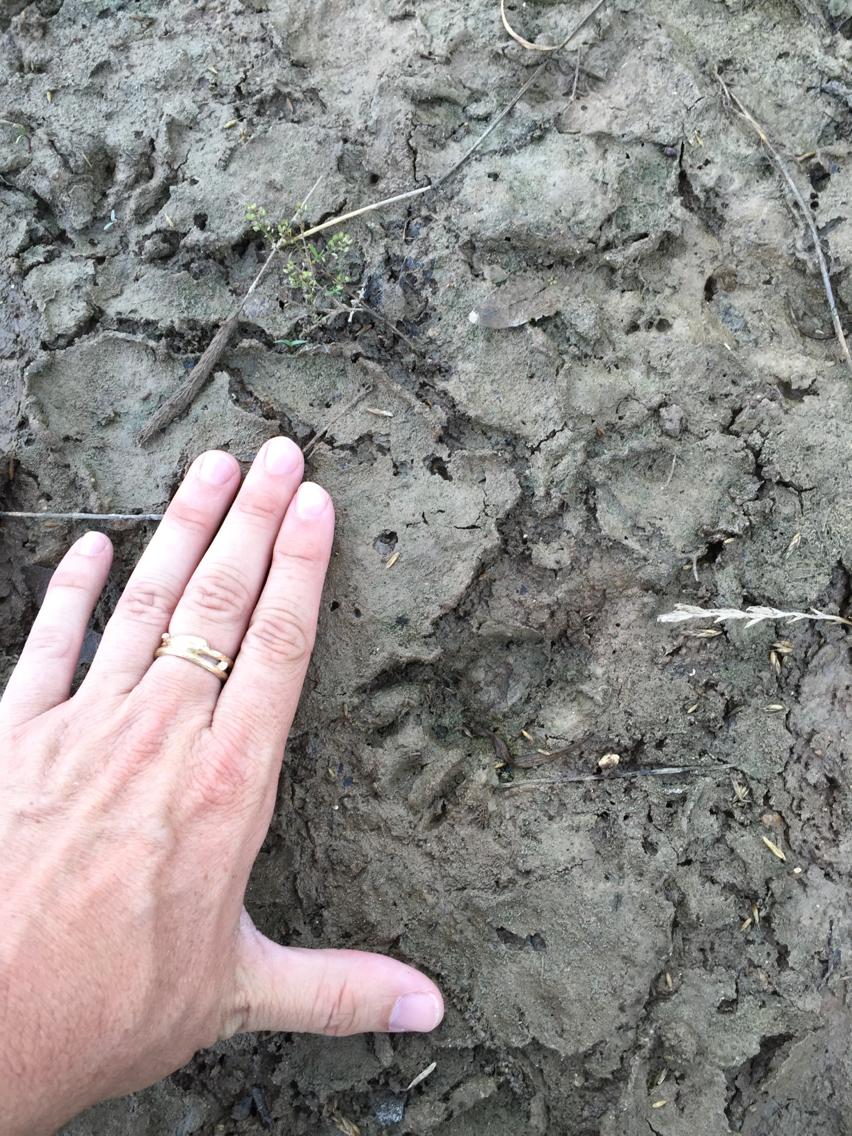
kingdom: Animalia
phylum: Chordata
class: Mammalia
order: Carnivora
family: Procyonidae
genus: Procyon
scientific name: Procyon lotor
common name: Raccoon
